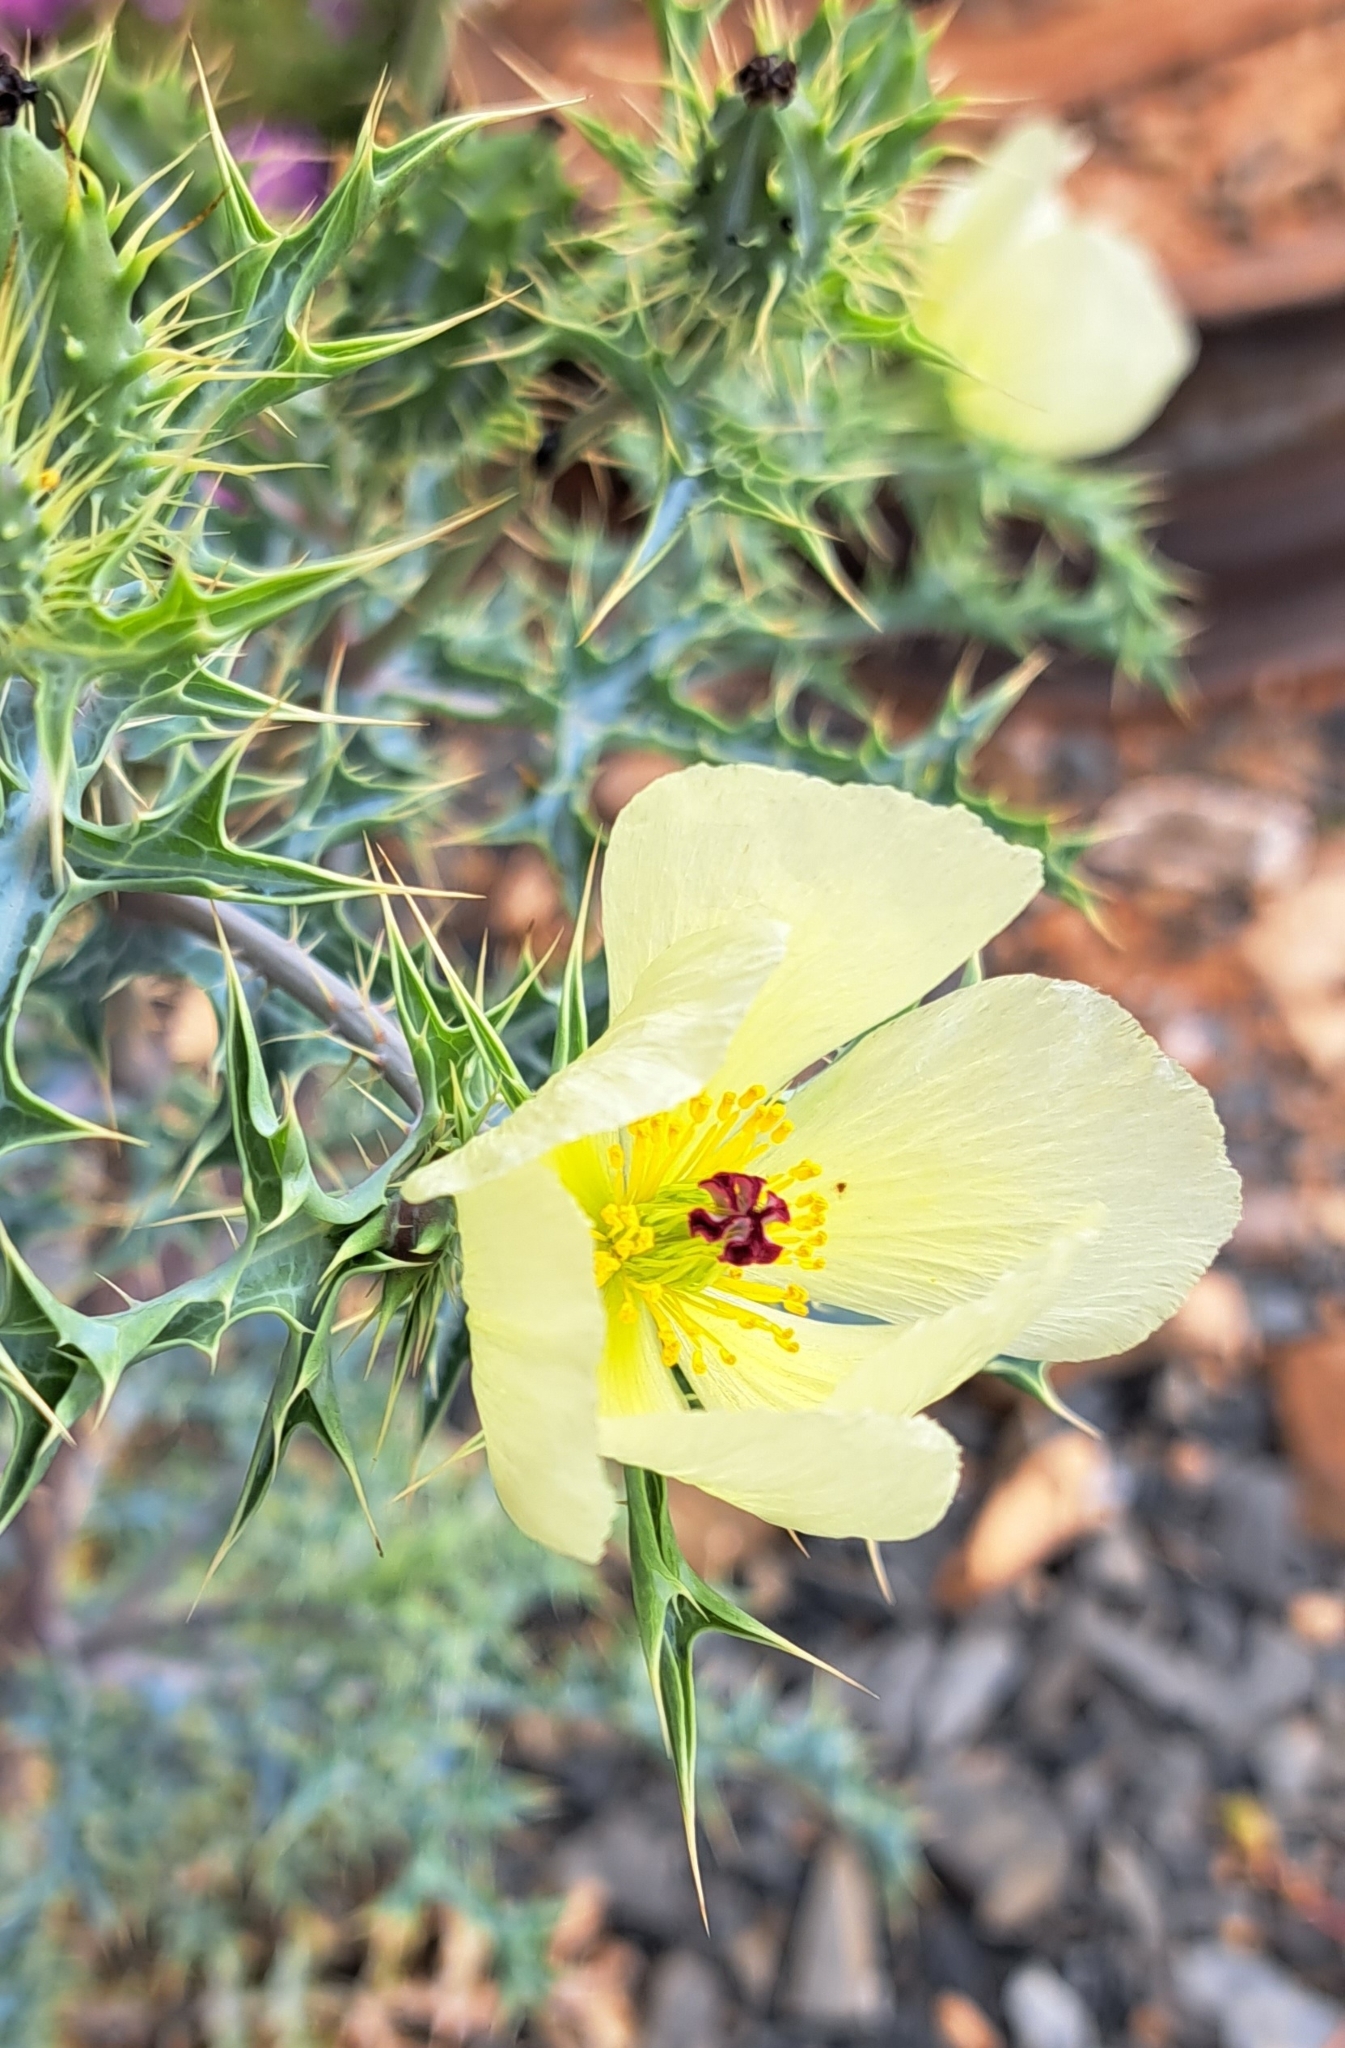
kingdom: Plantae
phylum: Tracheophyta
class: Magnoliopsida
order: Ranunculales
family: Papaveraceae
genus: Argemone
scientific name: Argemone ochroleuca
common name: White-flower mexican-poppy
